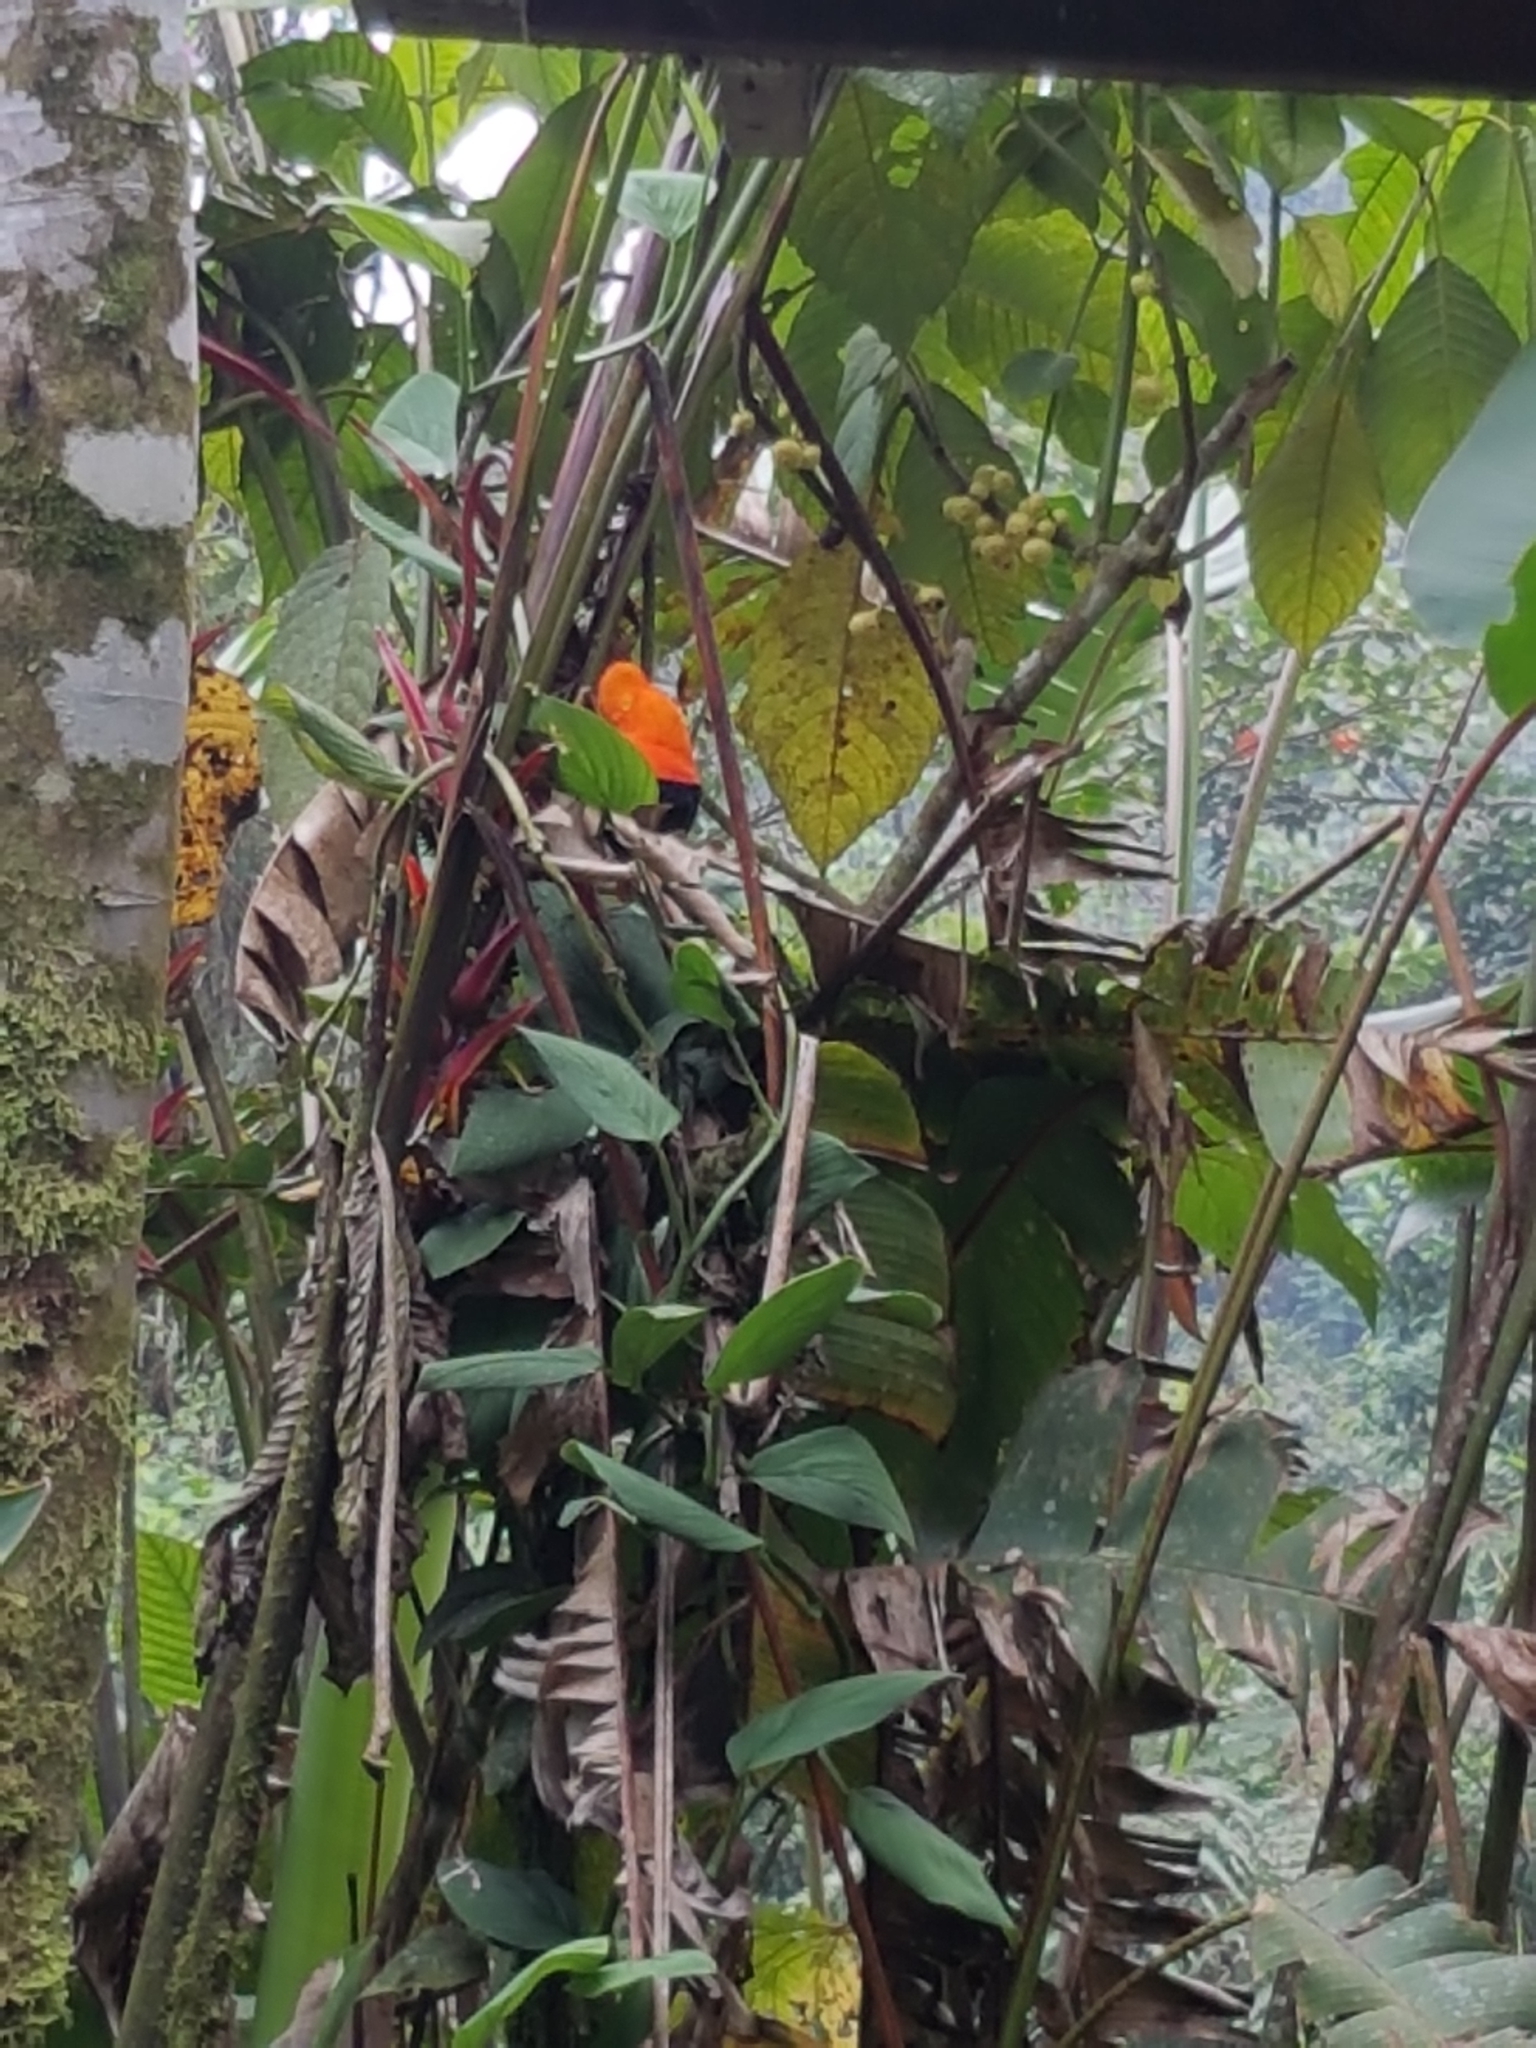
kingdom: Animalia
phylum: Chordata
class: Aves
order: Passeriformes
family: Cotingidae
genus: Rupicola
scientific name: Rupicola peruvianus
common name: Andean cock-of-the-rock
